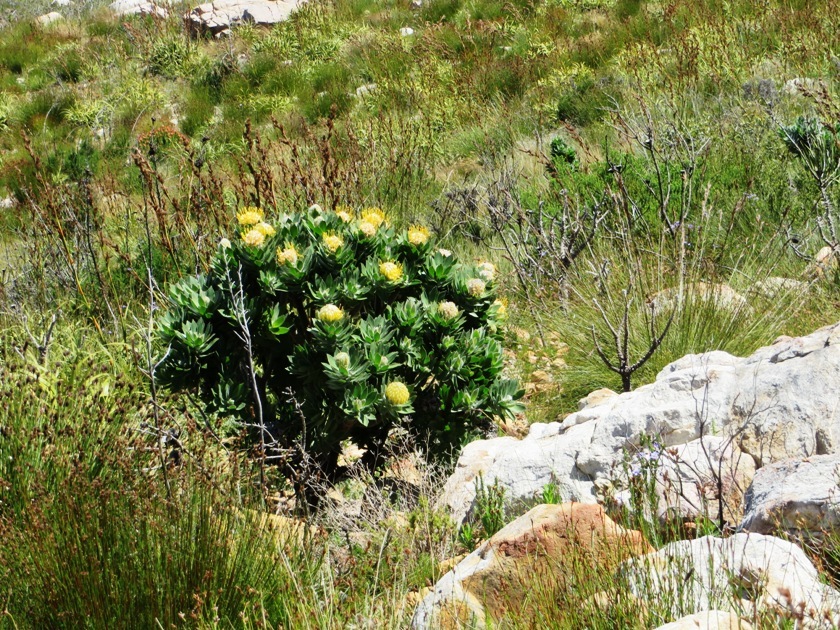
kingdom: Plantae
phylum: Tracheophyta
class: Magnoliopsida
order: Proteales
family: Proteaceae
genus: Leucospermum
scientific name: Leucospermum conocarpodendron
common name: Tree pincushion
